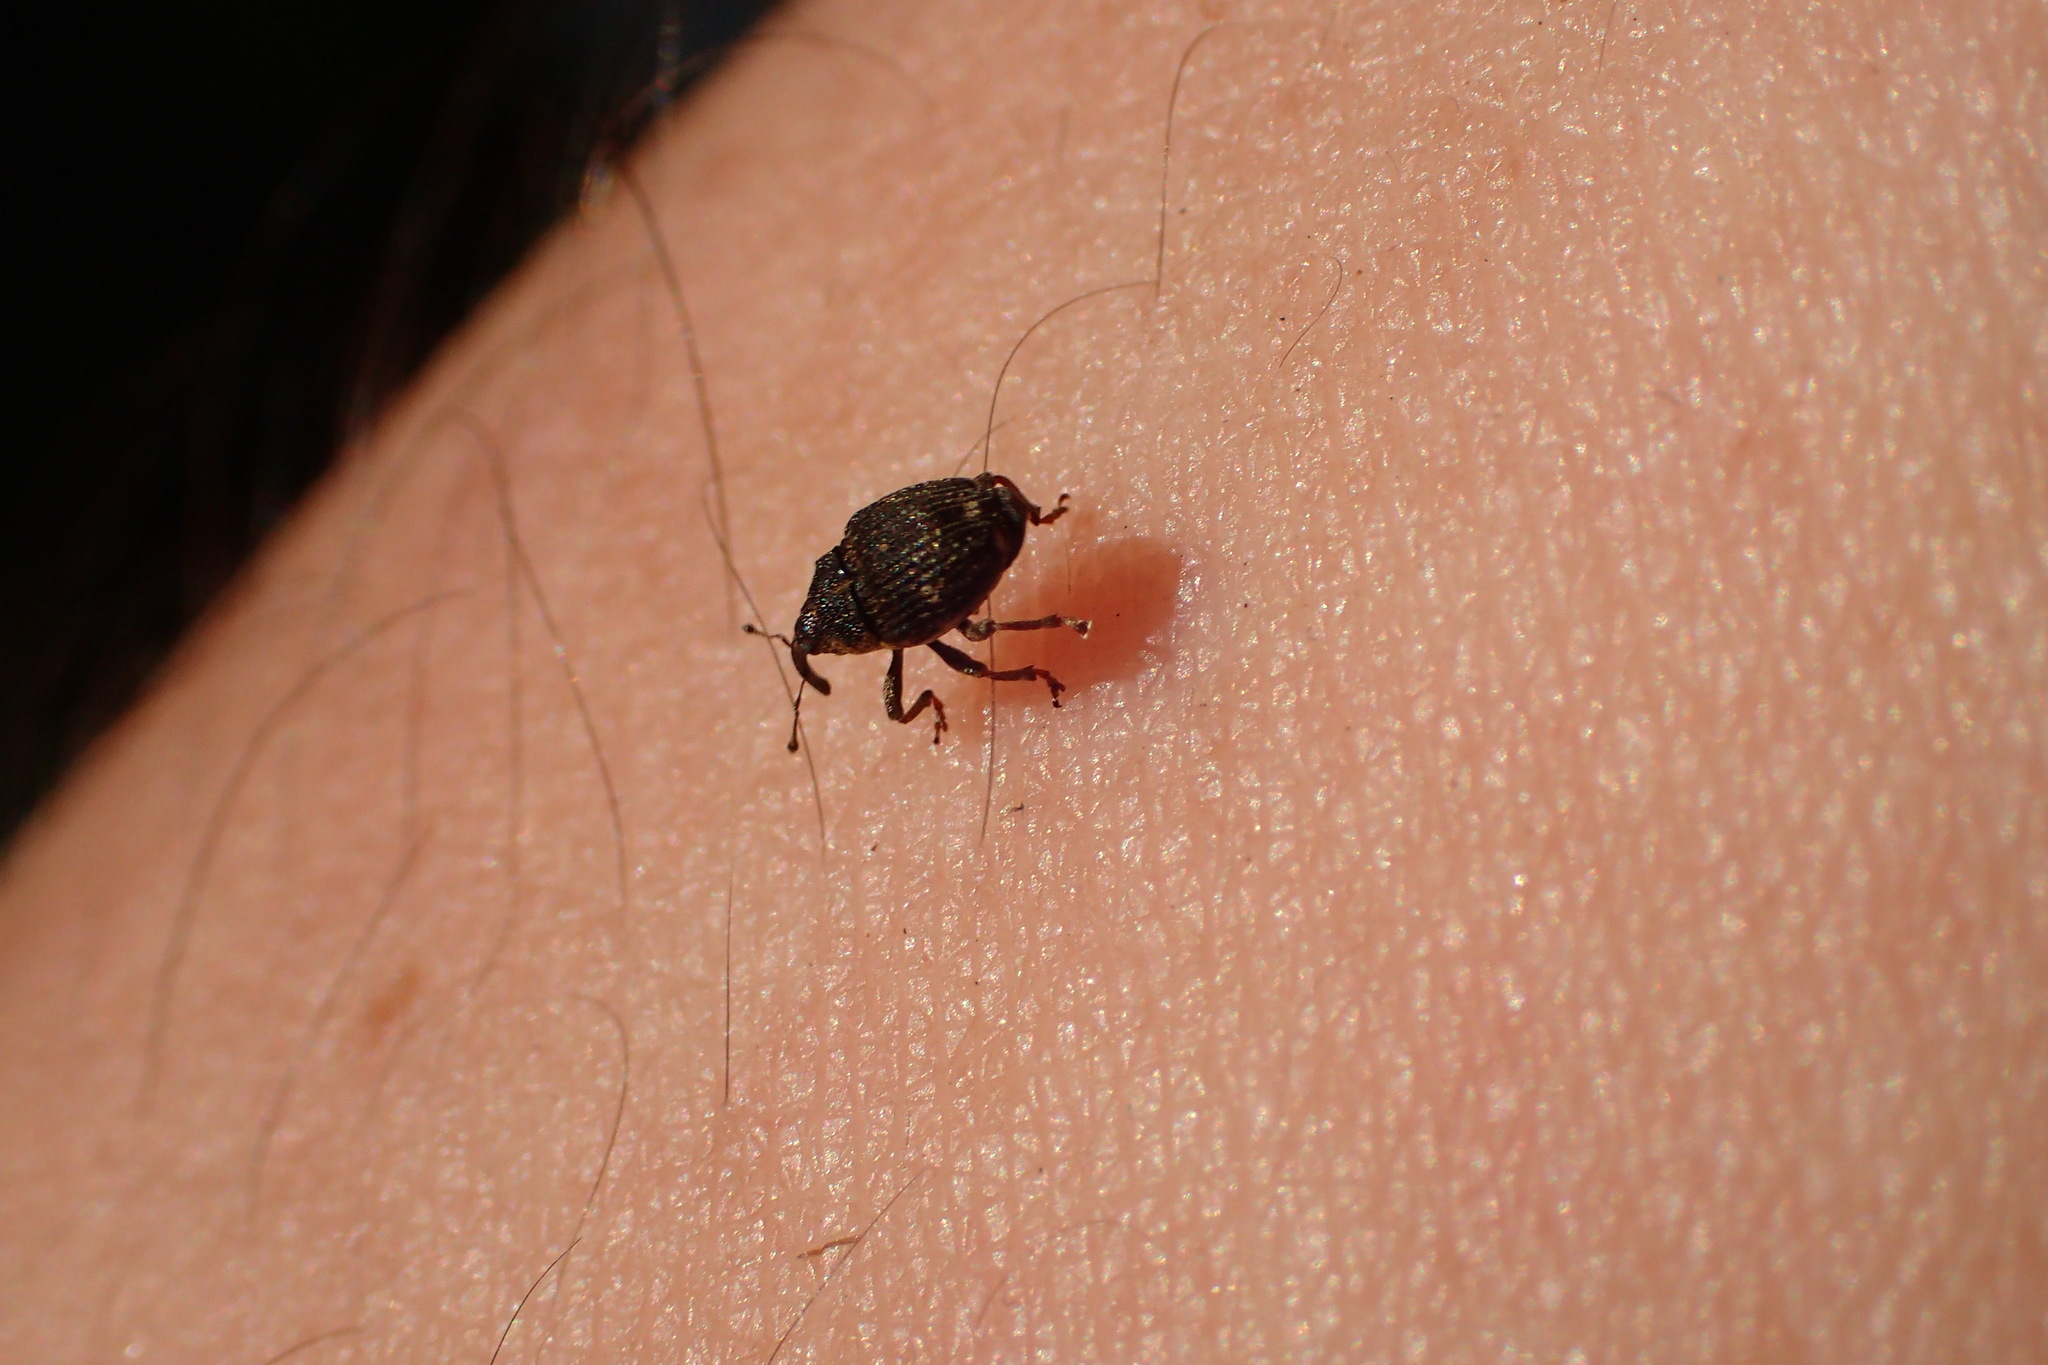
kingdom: Animalia
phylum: Arthropoda
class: Insecta
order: Coleoptera
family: Curculionidae
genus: Nedyus
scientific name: Nedyus quadrimaculatus
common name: Small nettle weevil
